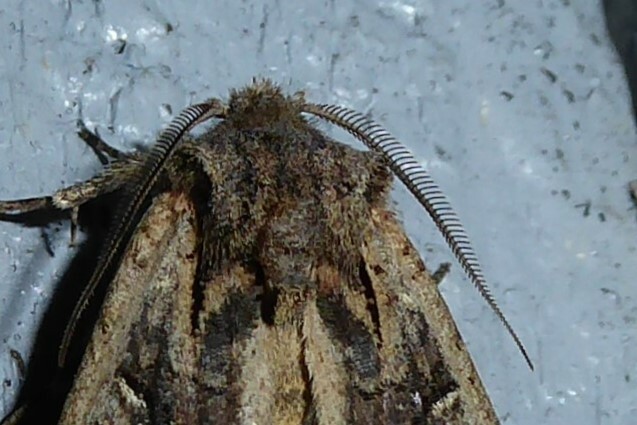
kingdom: Animalia
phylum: Arthropoda
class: Insecta
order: Lepidoptera
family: Noctuidae
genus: Ichneutica
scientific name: Ichneutica
